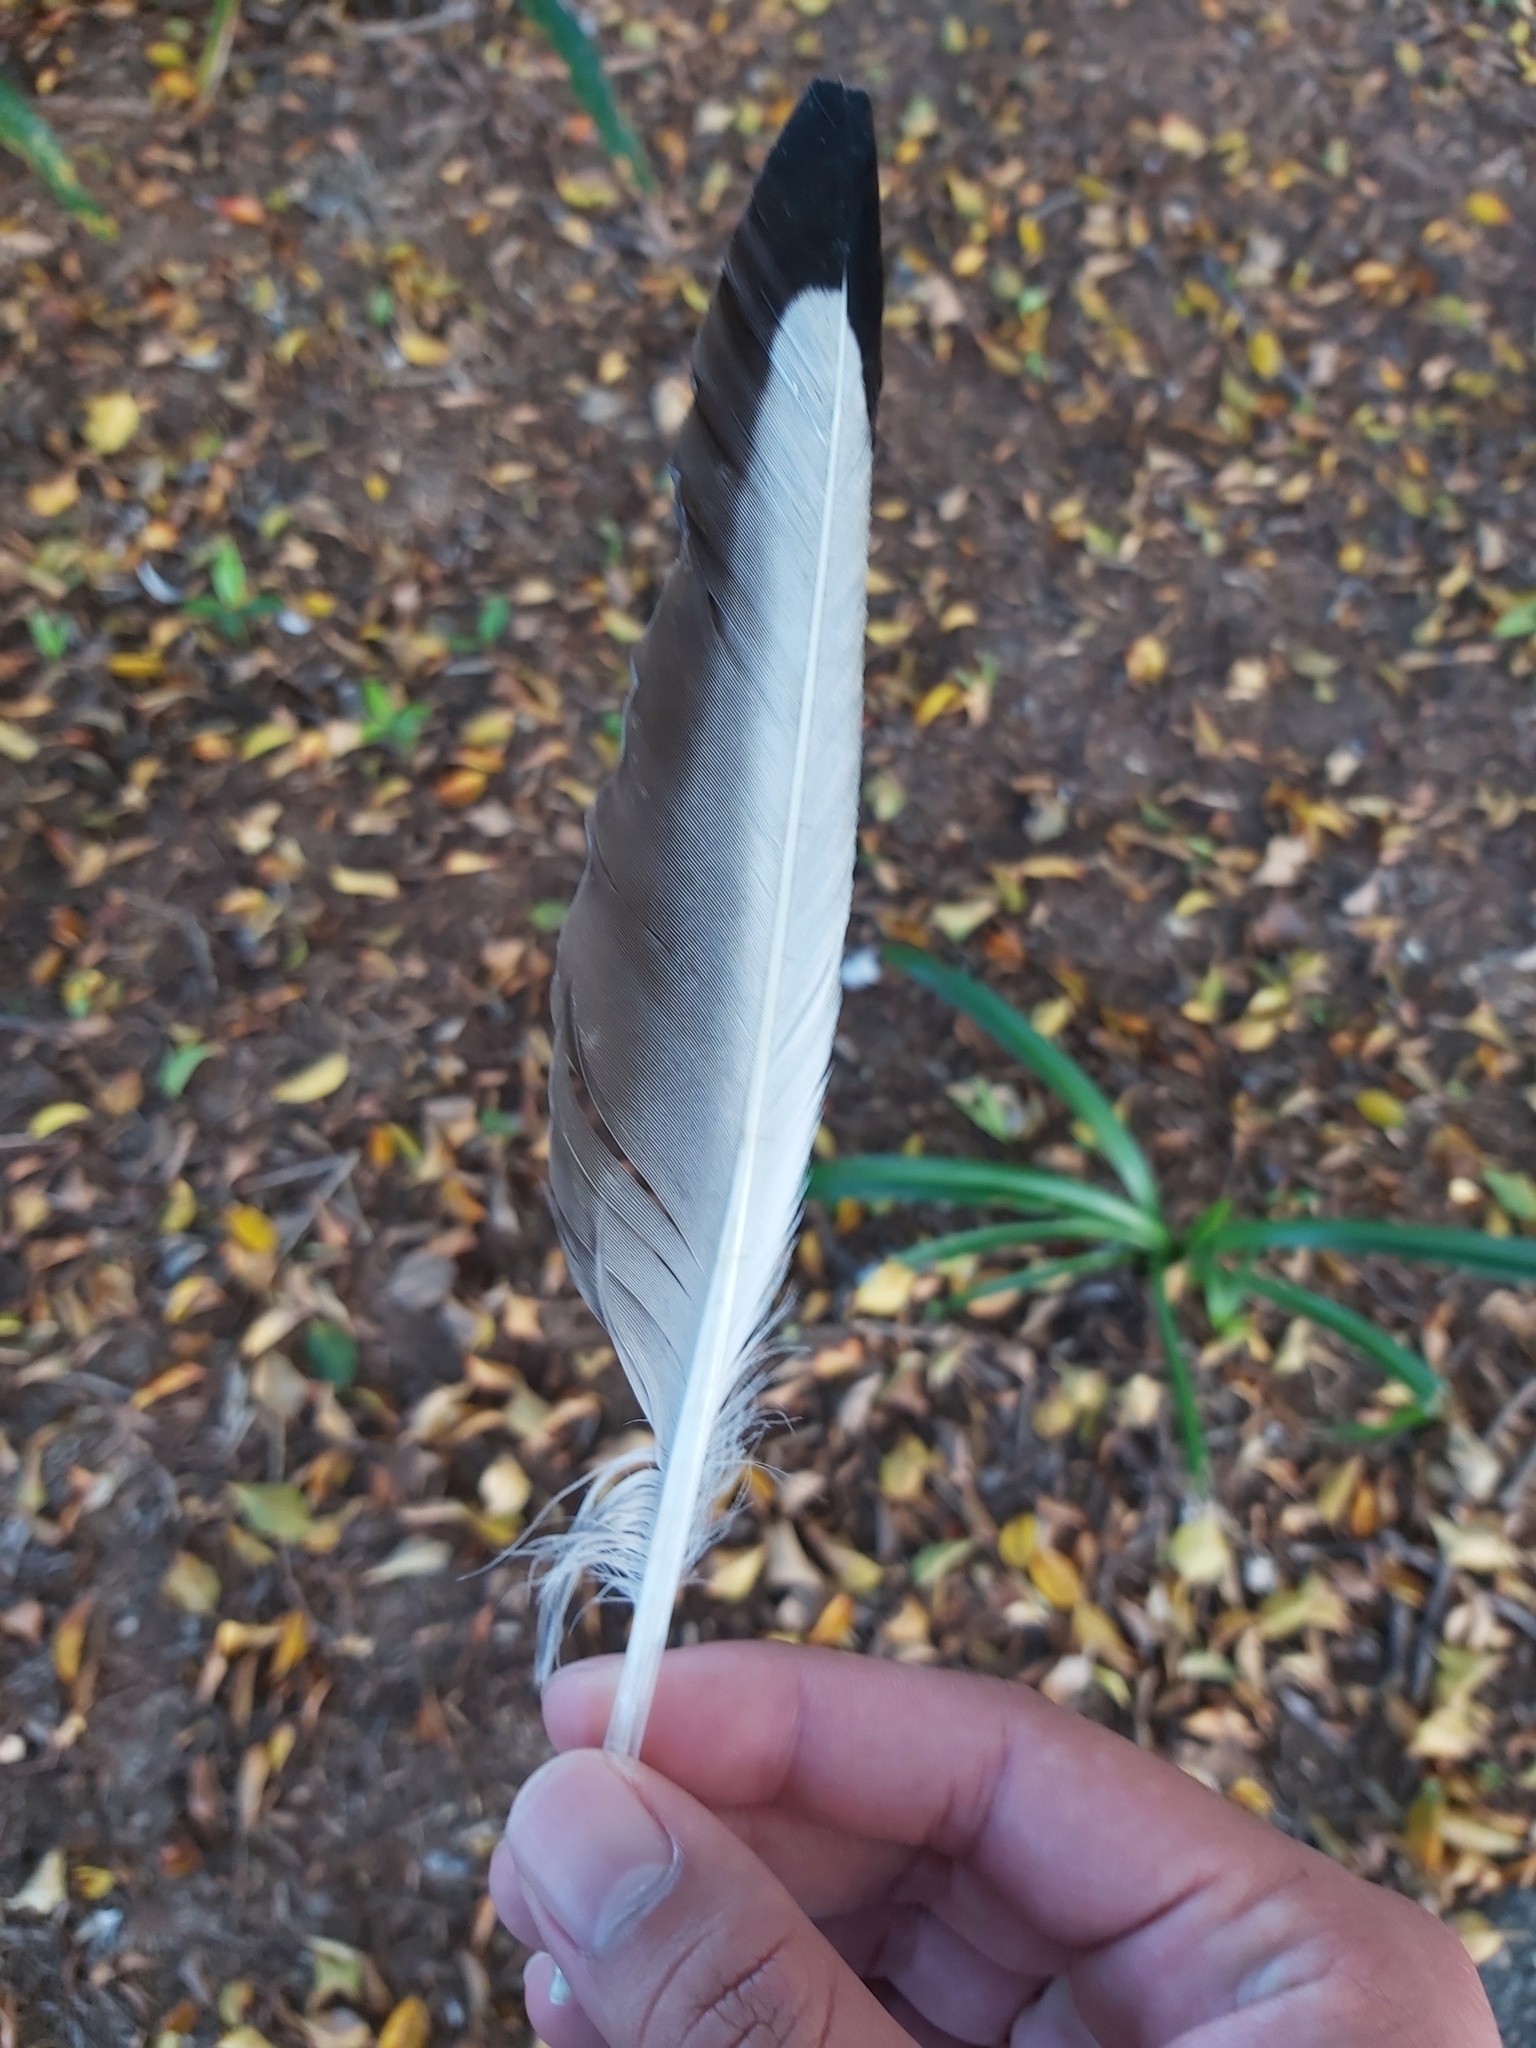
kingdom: Animalia
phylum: Chordata
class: Aves
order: Charadriiformes
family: Laridae
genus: Chroicocephalus
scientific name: Chroicocephalus novaehollandiae
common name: Silver gull
